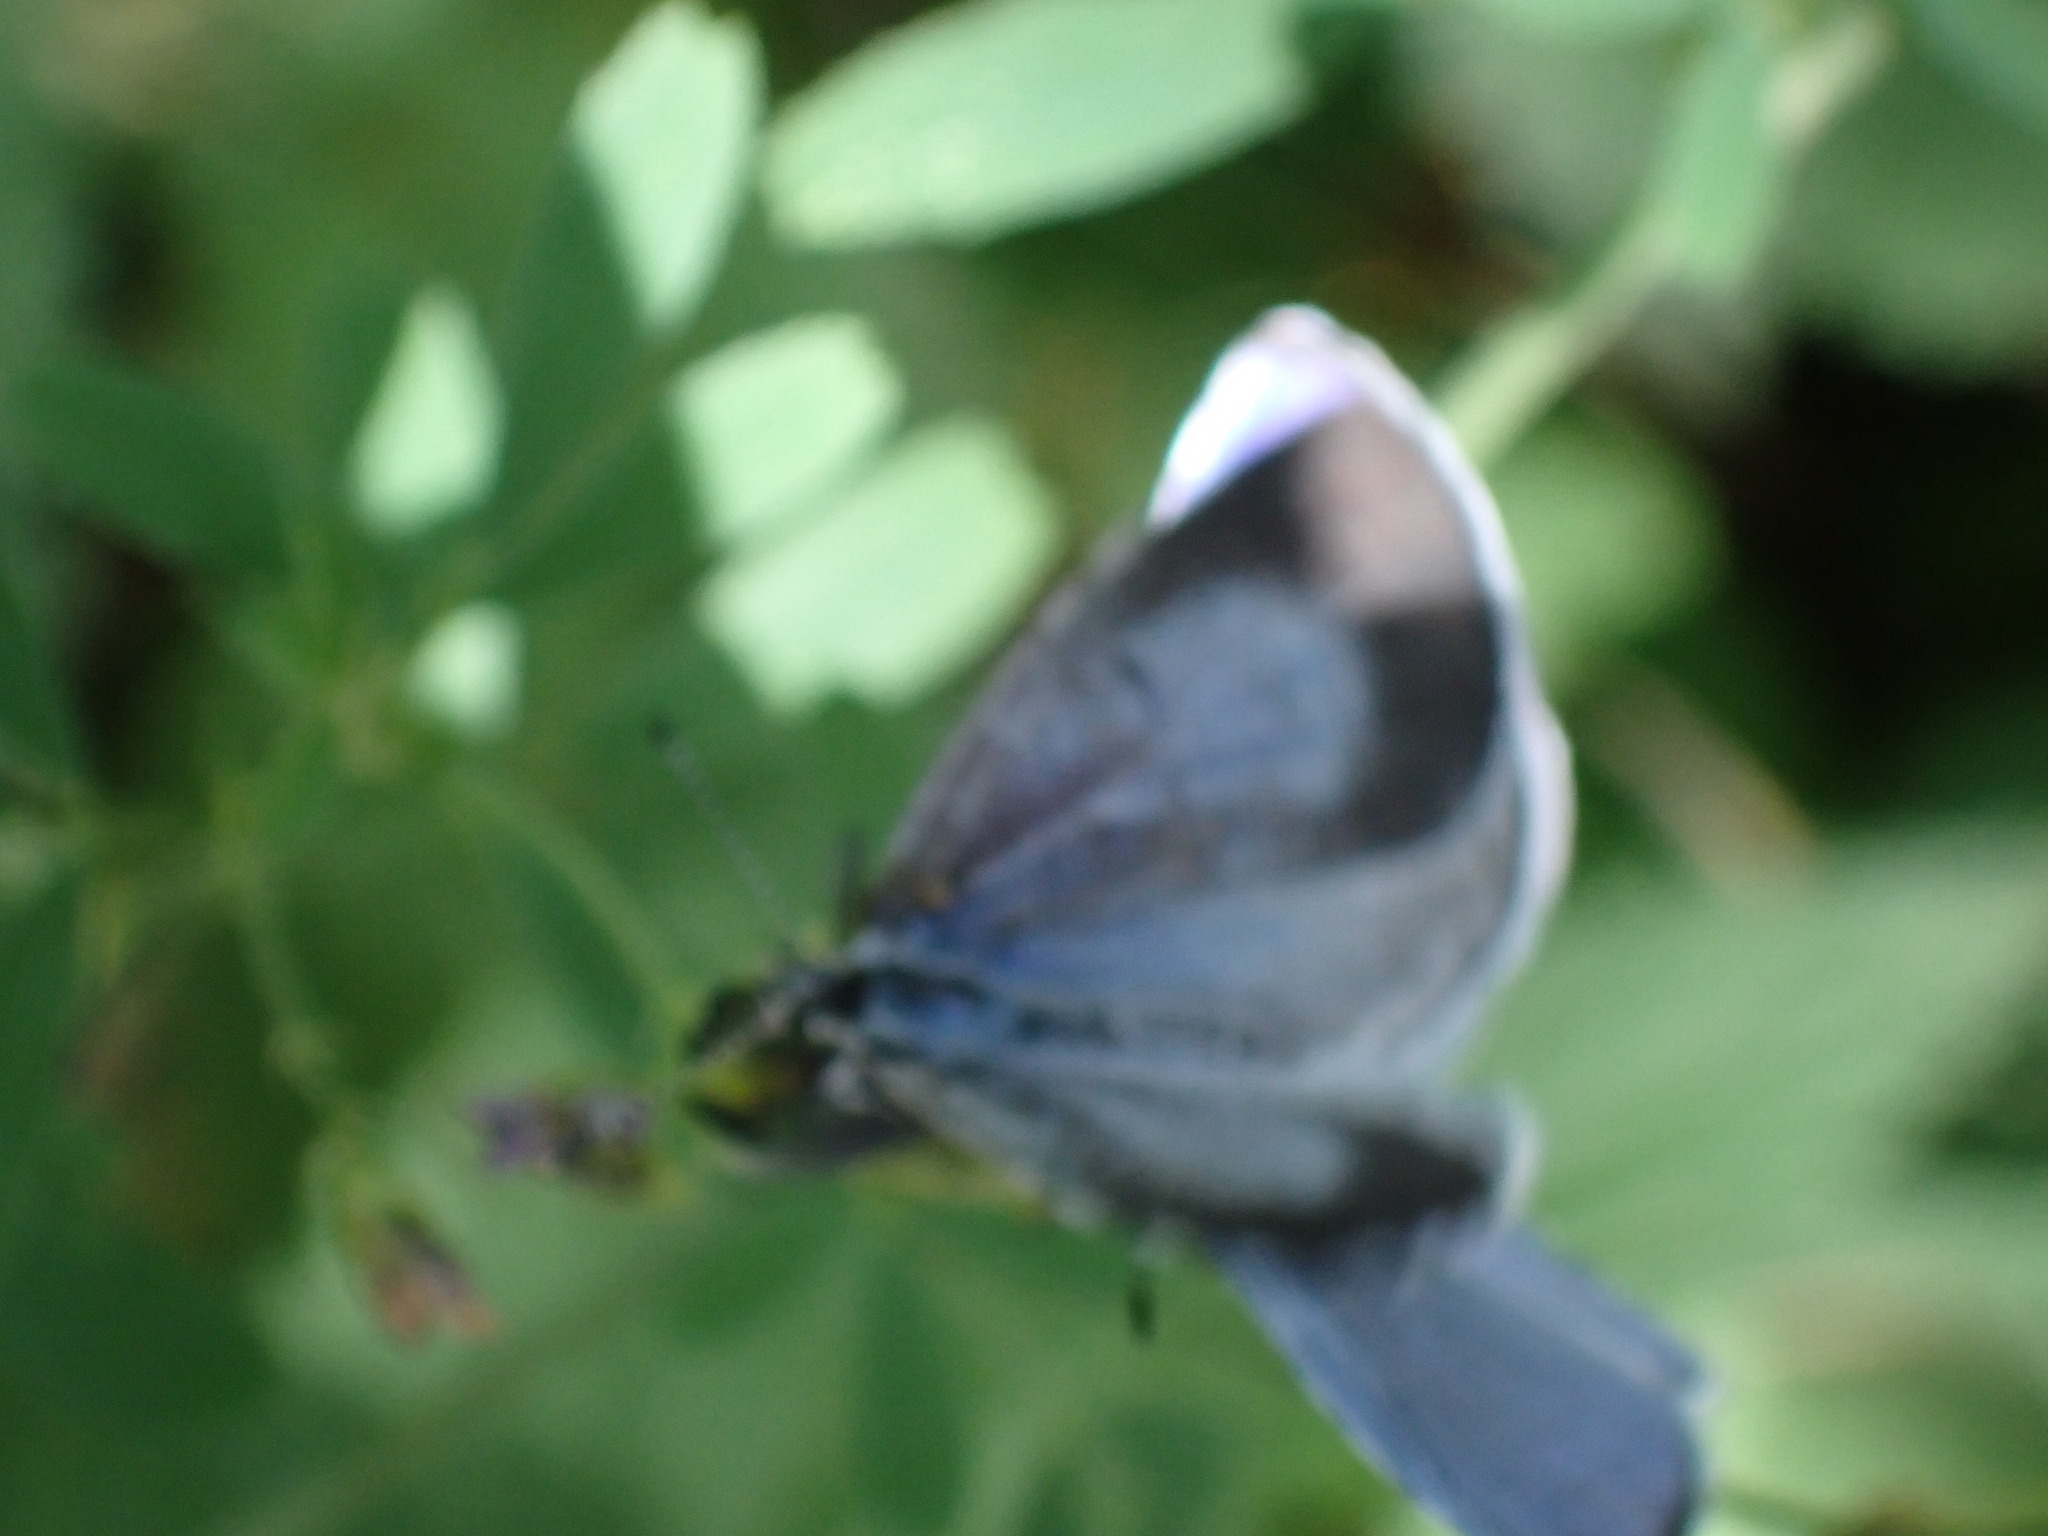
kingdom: Animalia
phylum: Arthropoda
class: Insecta
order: Lepidoptera
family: Lycaenidae
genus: Celastrina
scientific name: Celastrina argiolus
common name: Holly blue
